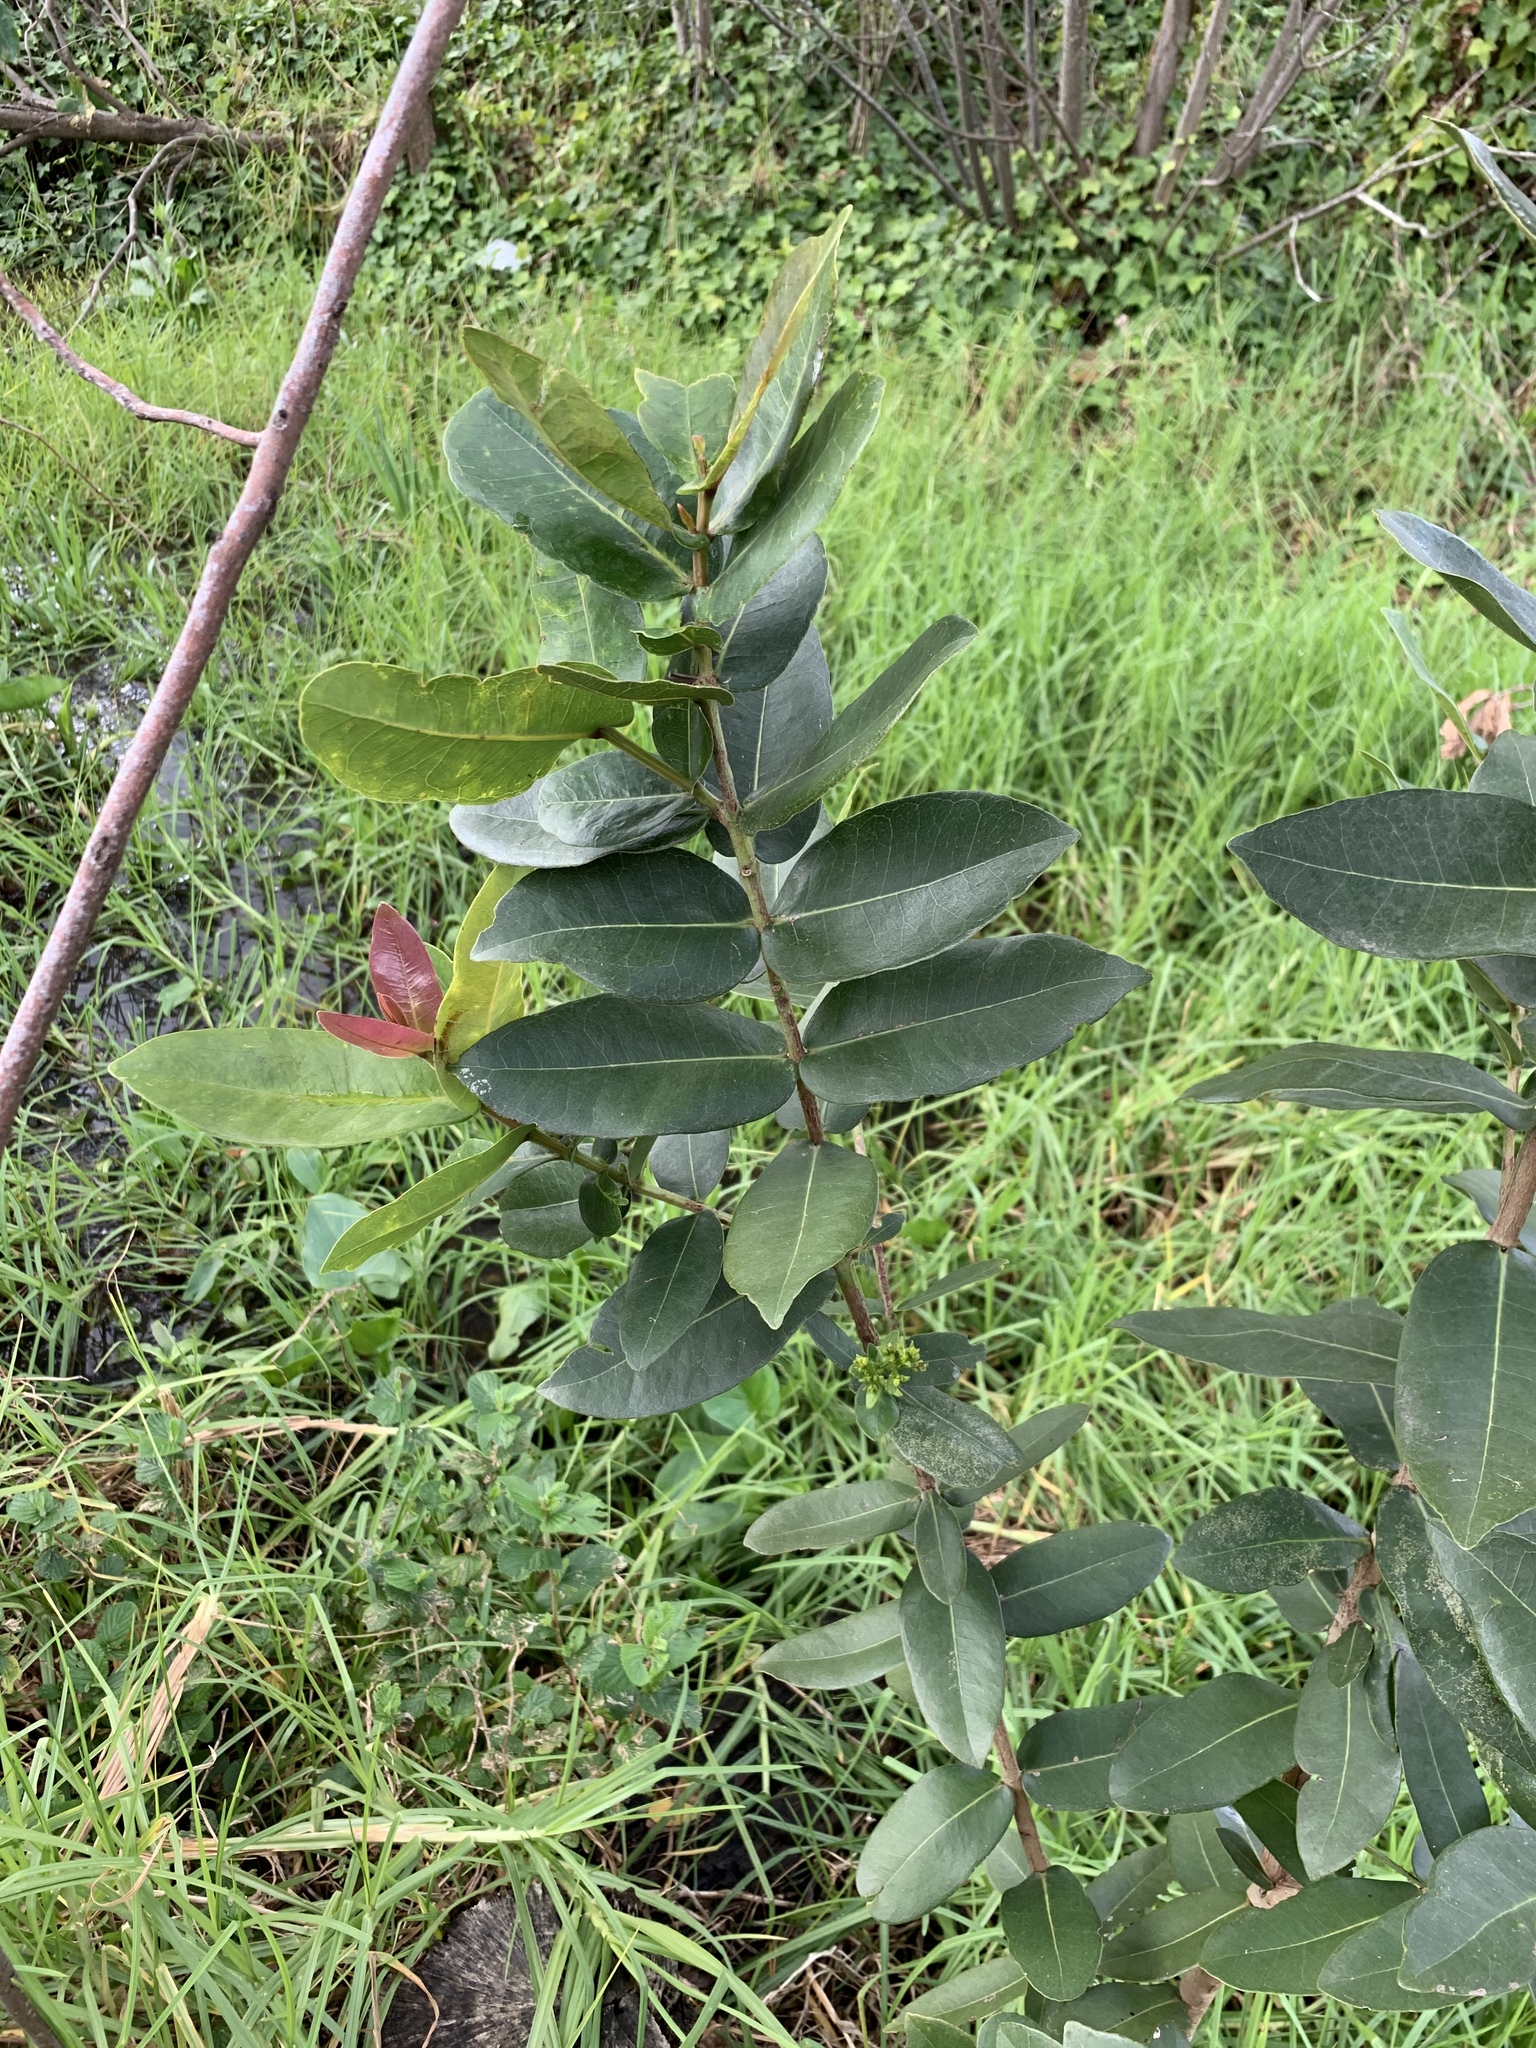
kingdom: Plantae
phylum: Tracheophyta
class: Magnoliopsida
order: Myrtales
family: Myrtaceae
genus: Syzygium
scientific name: Syzygium cordatum
